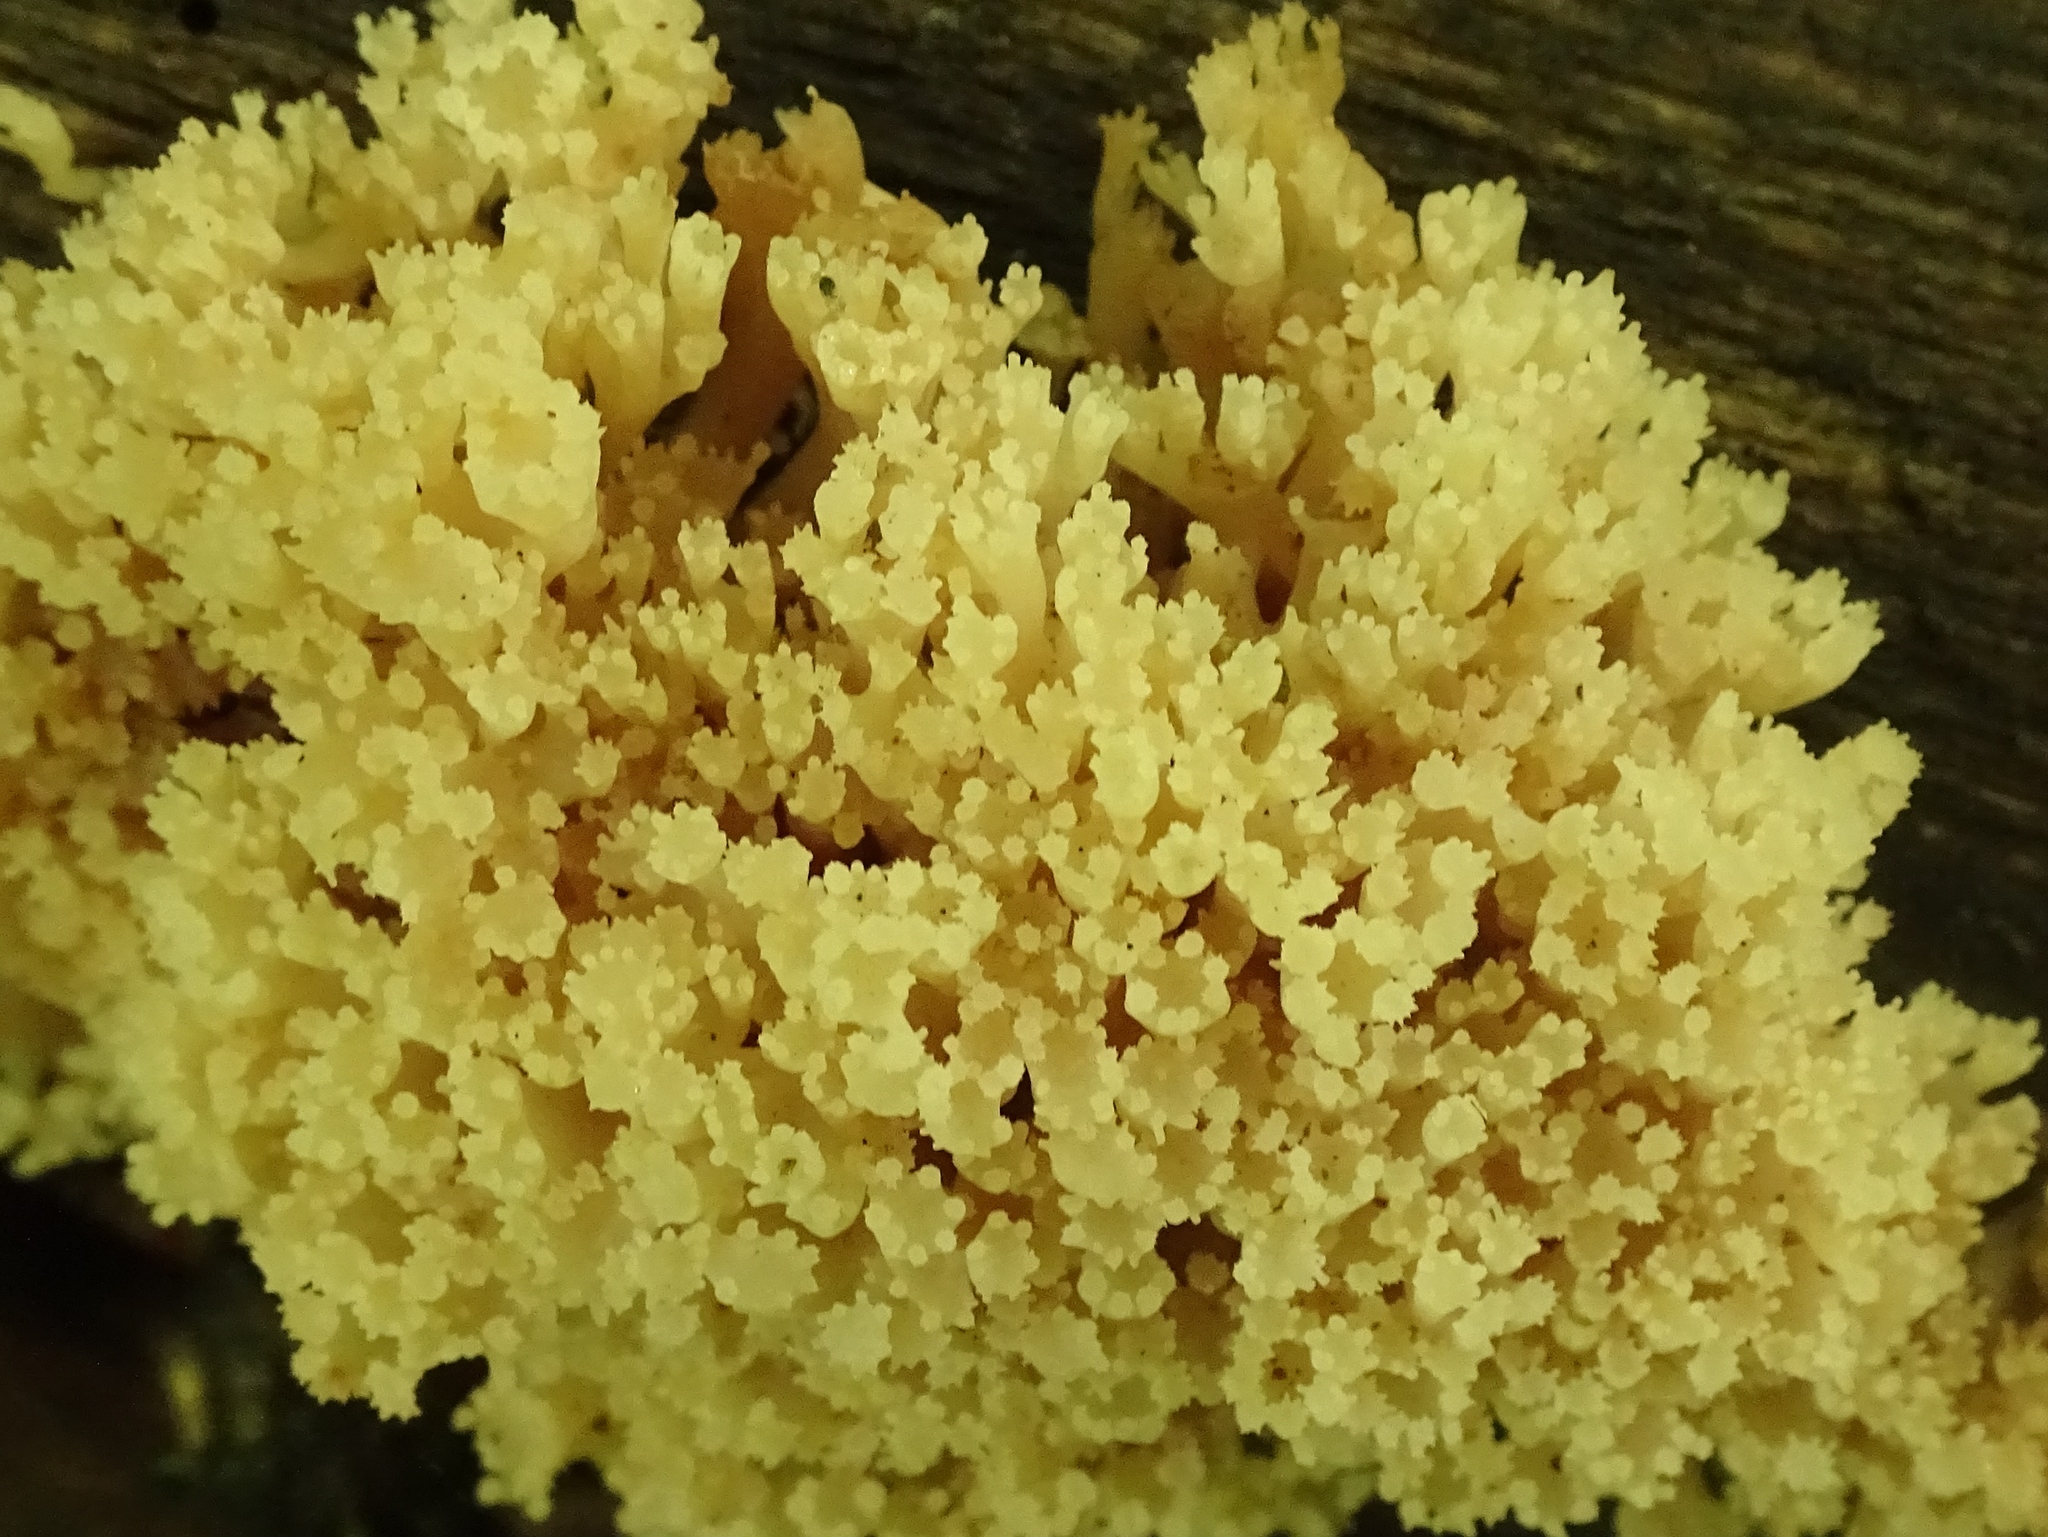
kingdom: Fungi
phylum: Basidiomycota
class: Agaricomycetes
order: Russulales
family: Auriscalpiaceae
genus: Artomyces
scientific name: Artomyces pyxidatus
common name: Crown-tipped coral fungus
